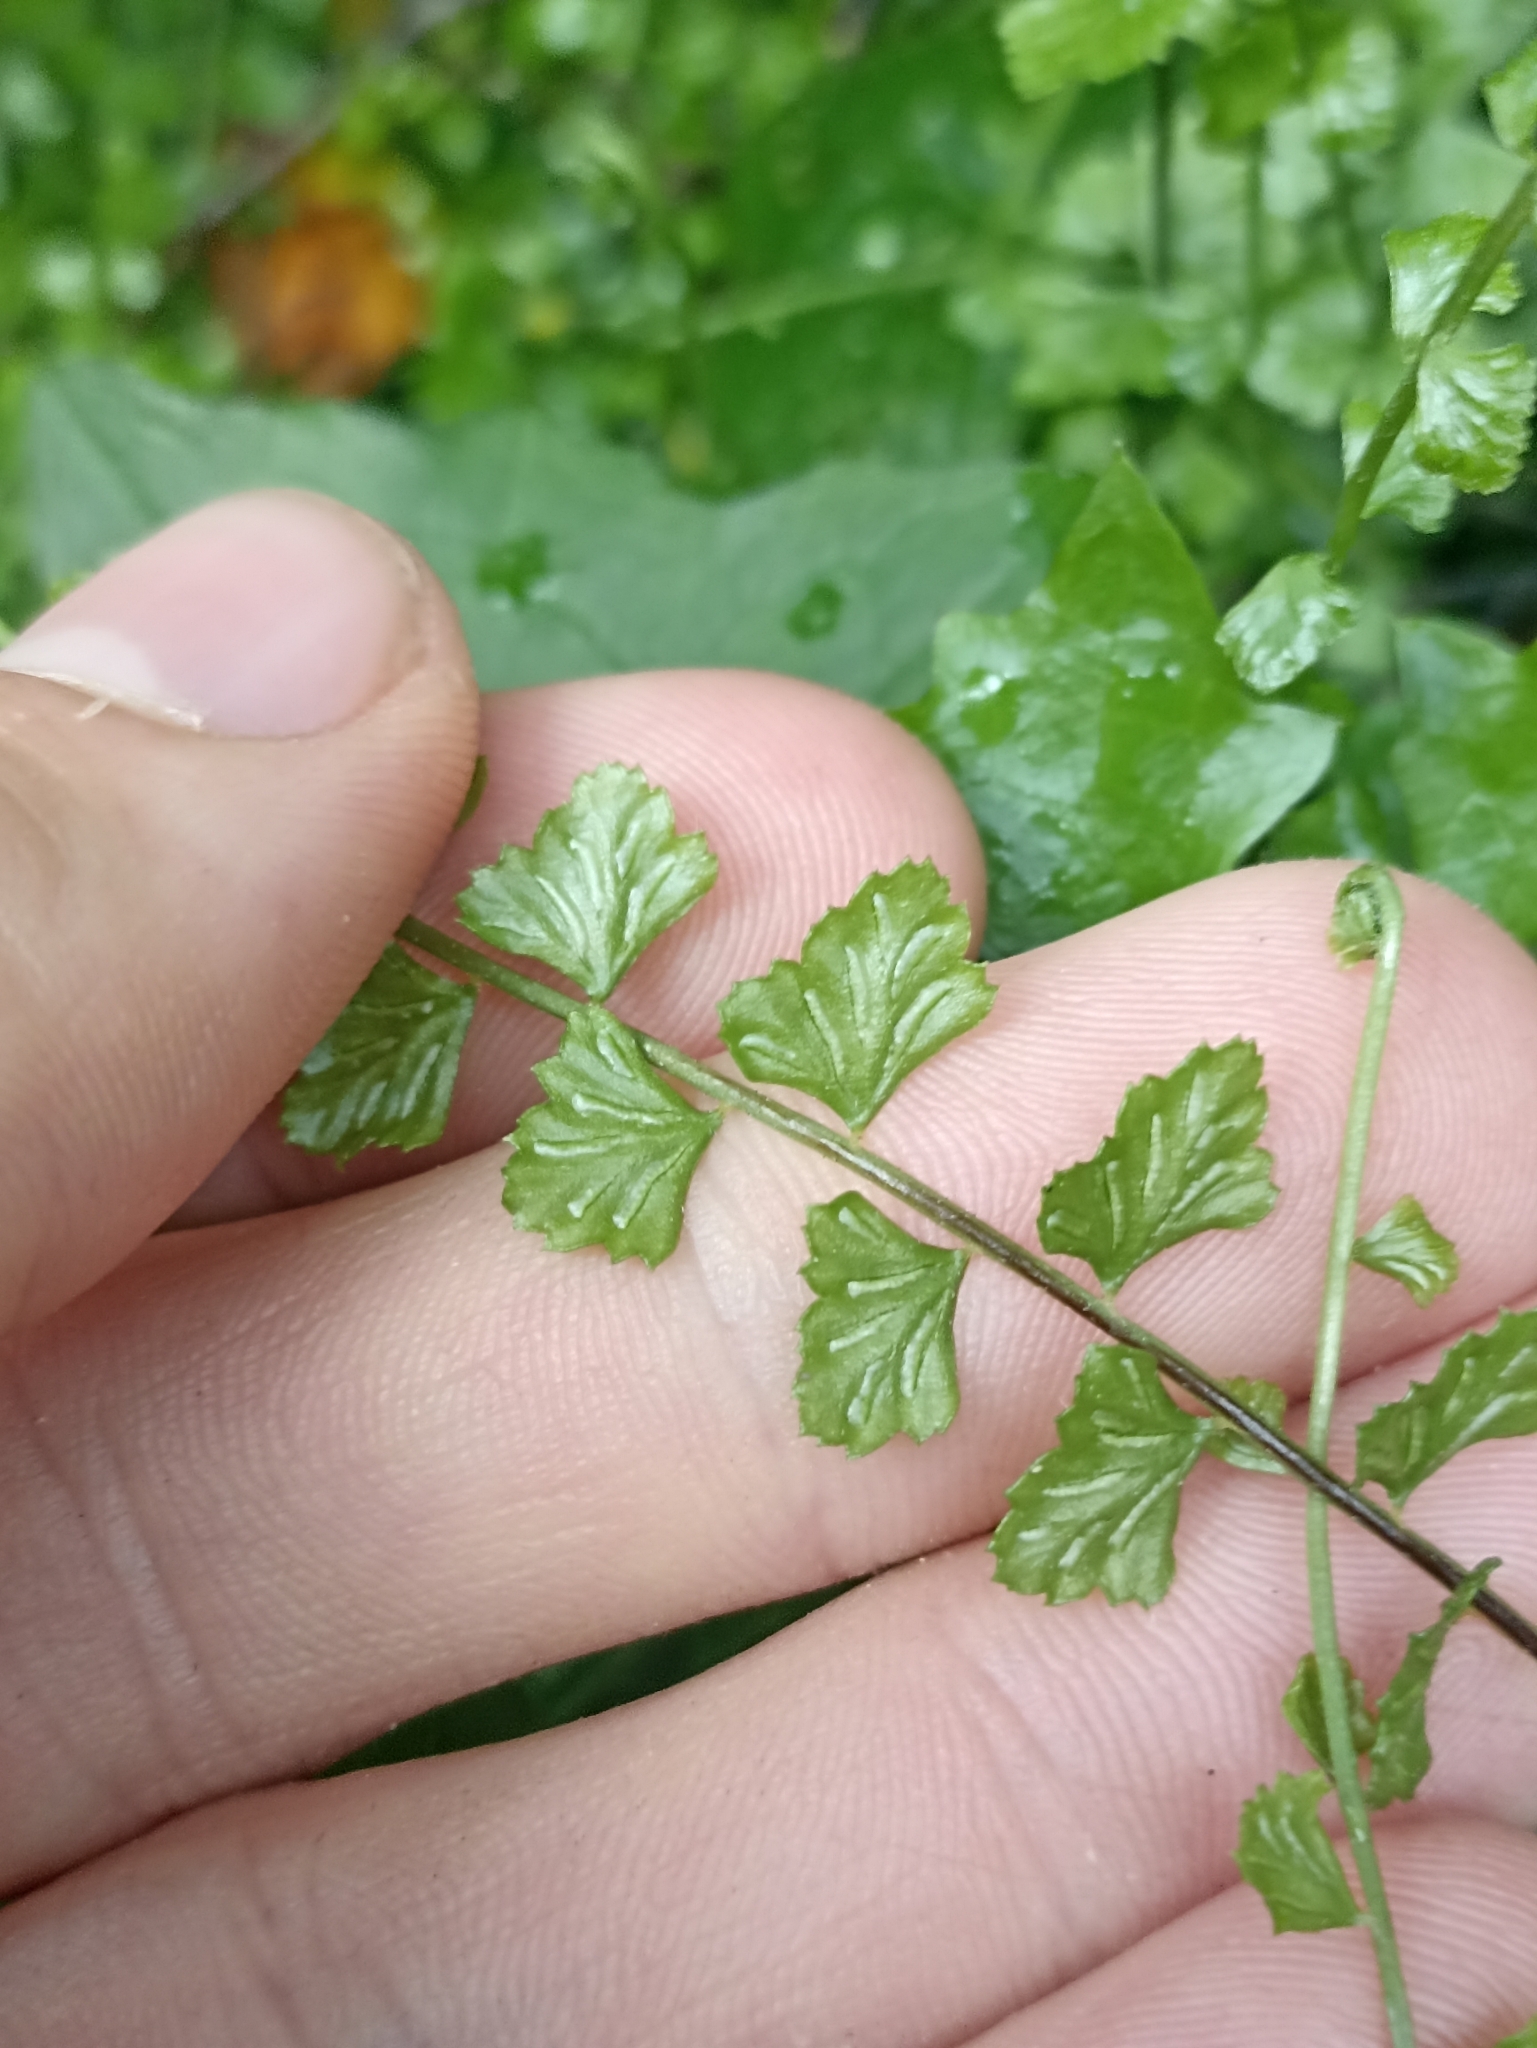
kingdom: Plantae
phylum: Tracheophyta
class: Polypodiopsida
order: Polypodiales
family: Aspleniaceae
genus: Asplenium
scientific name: Asplenium flabellifolium
